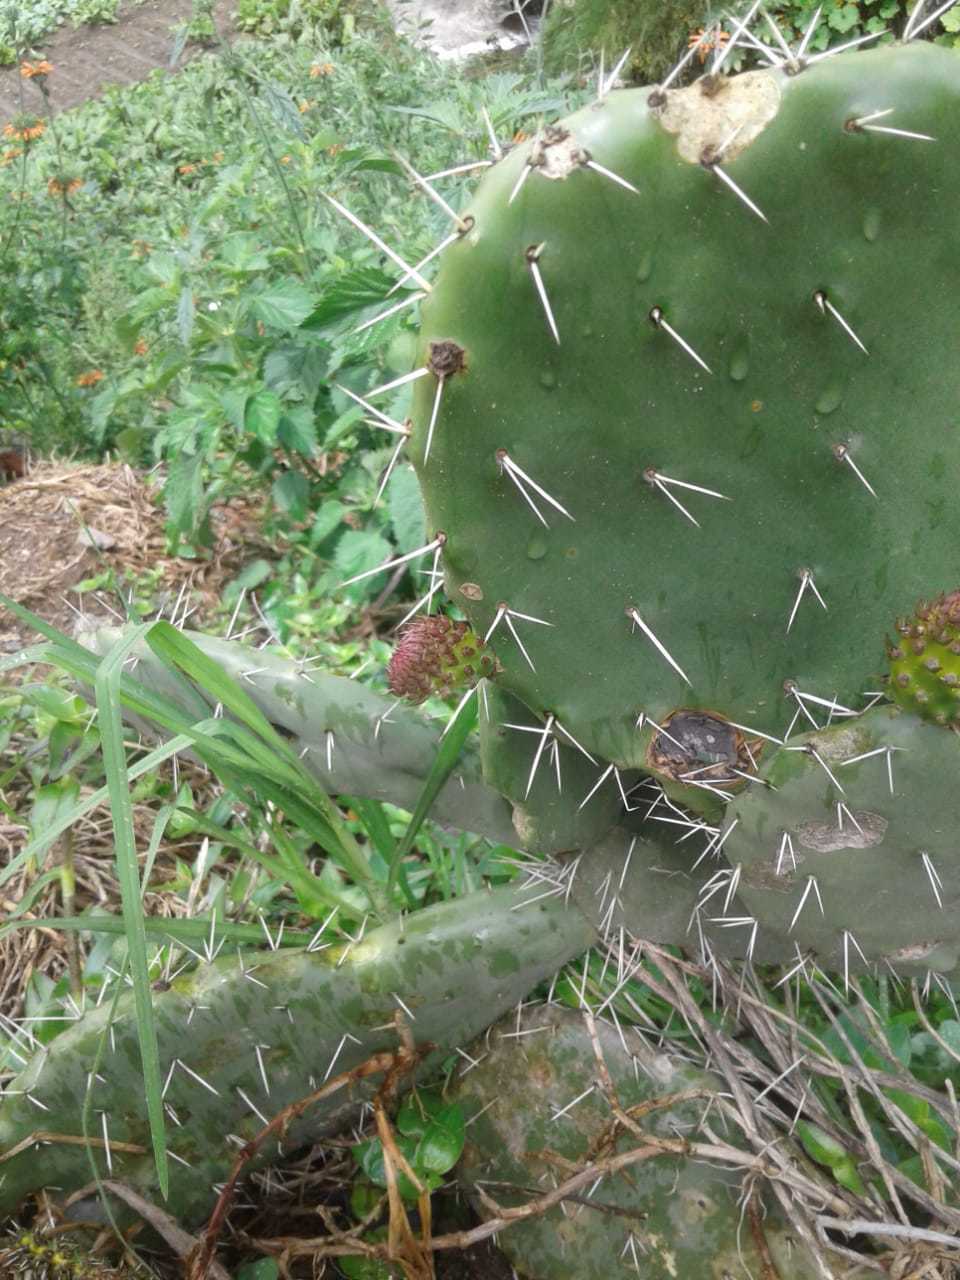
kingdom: Plantae
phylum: Tracheophyta
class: Magnoliopsida
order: Caryophyllales
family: Cactaceae
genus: Opuntia
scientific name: Opuntia ficus-indica
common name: Barbary fig
